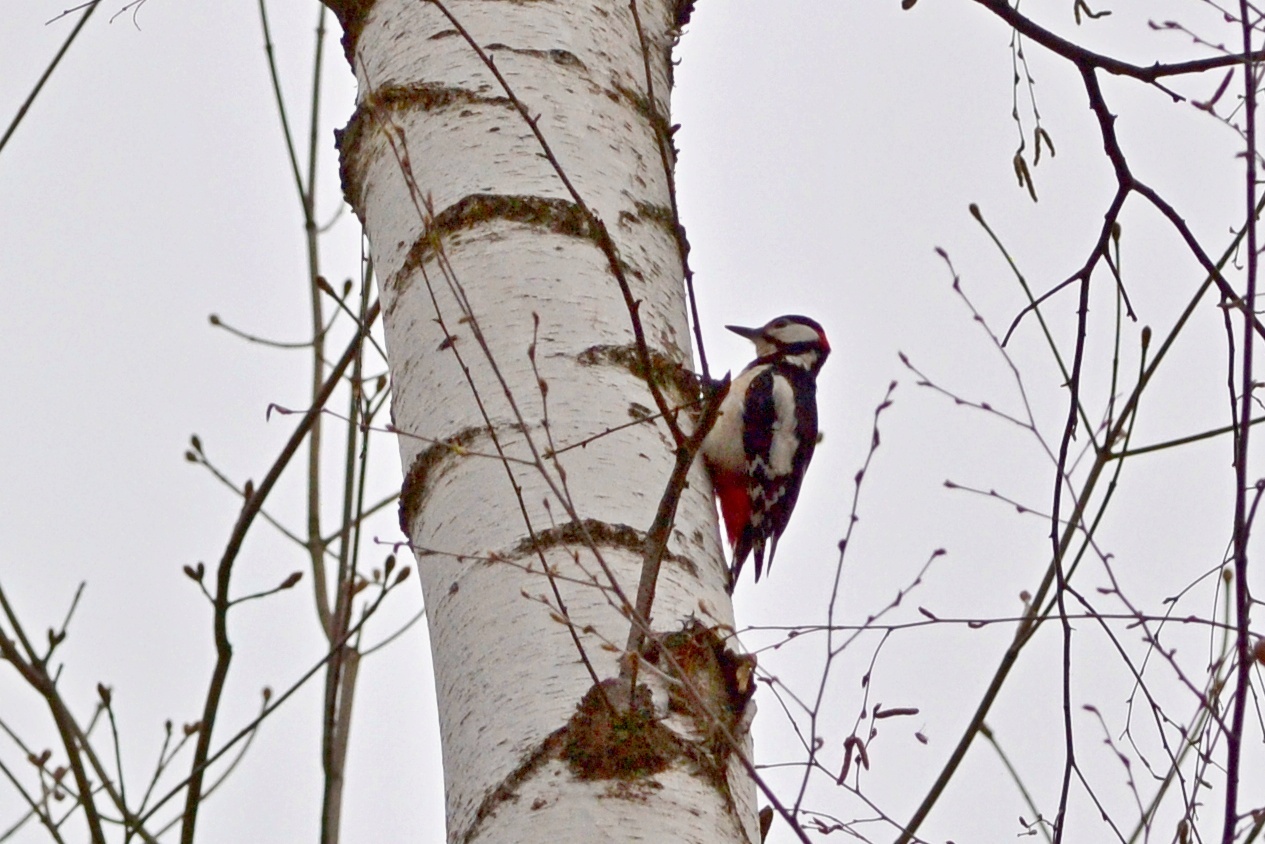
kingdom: Animalia
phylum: Chordata
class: Aves
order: Piciformes
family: Picidae
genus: Dendrocopos
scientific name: Dendrocopos major
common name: Great spotted woodpecker
